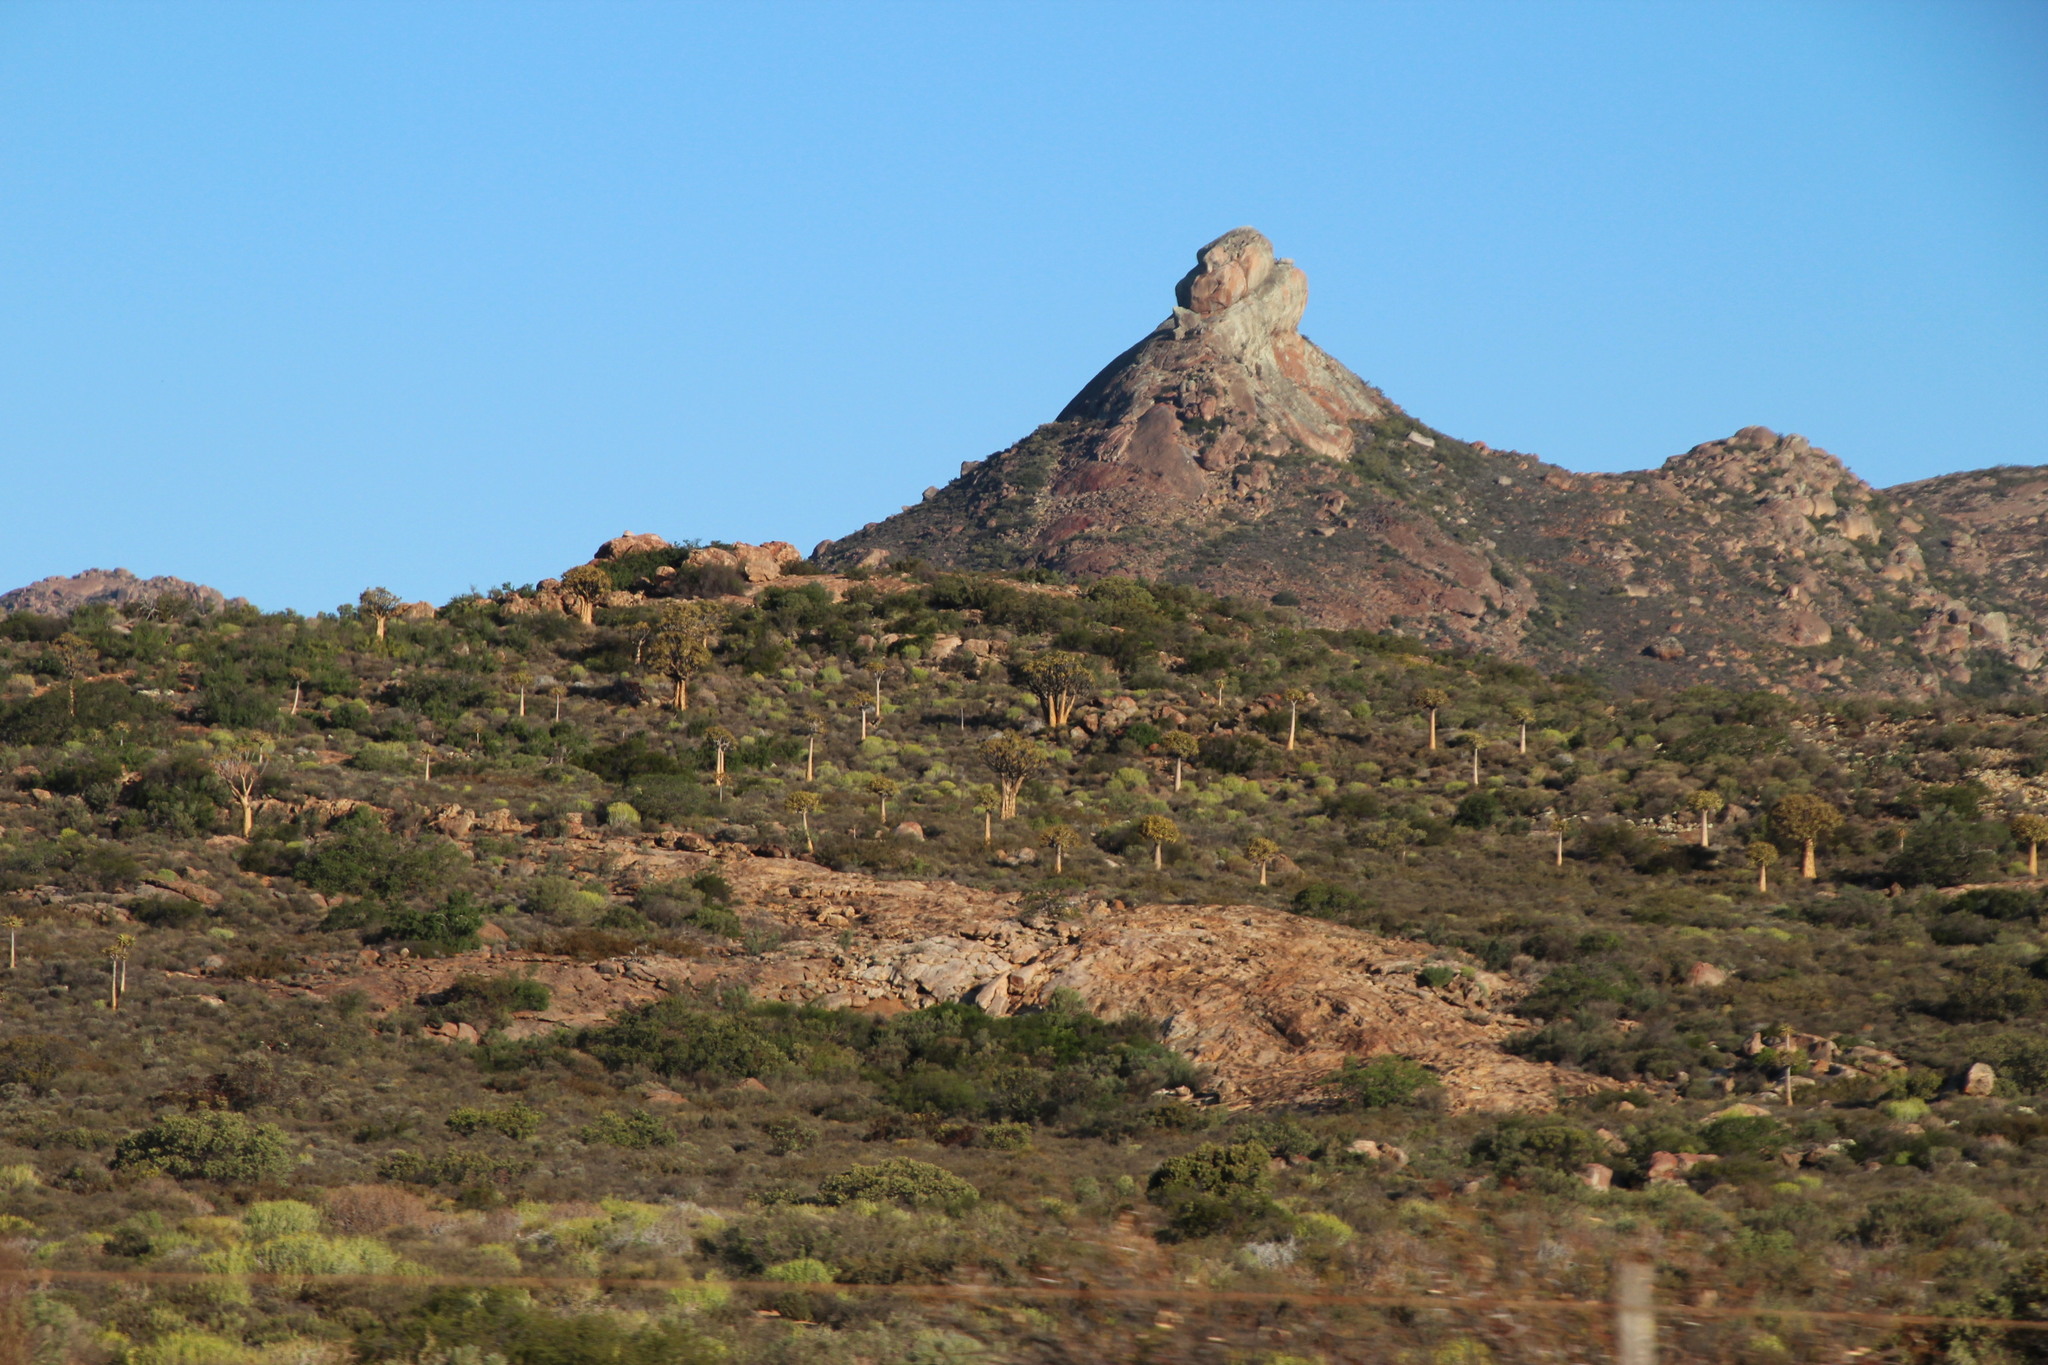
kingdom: Plantae
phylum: Tracheophyta
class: Liliopsida
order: Asparagales
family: Asphodelaceae
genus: Aloidendron
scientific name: Aloidendron dichotomum
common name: Quiver tree
